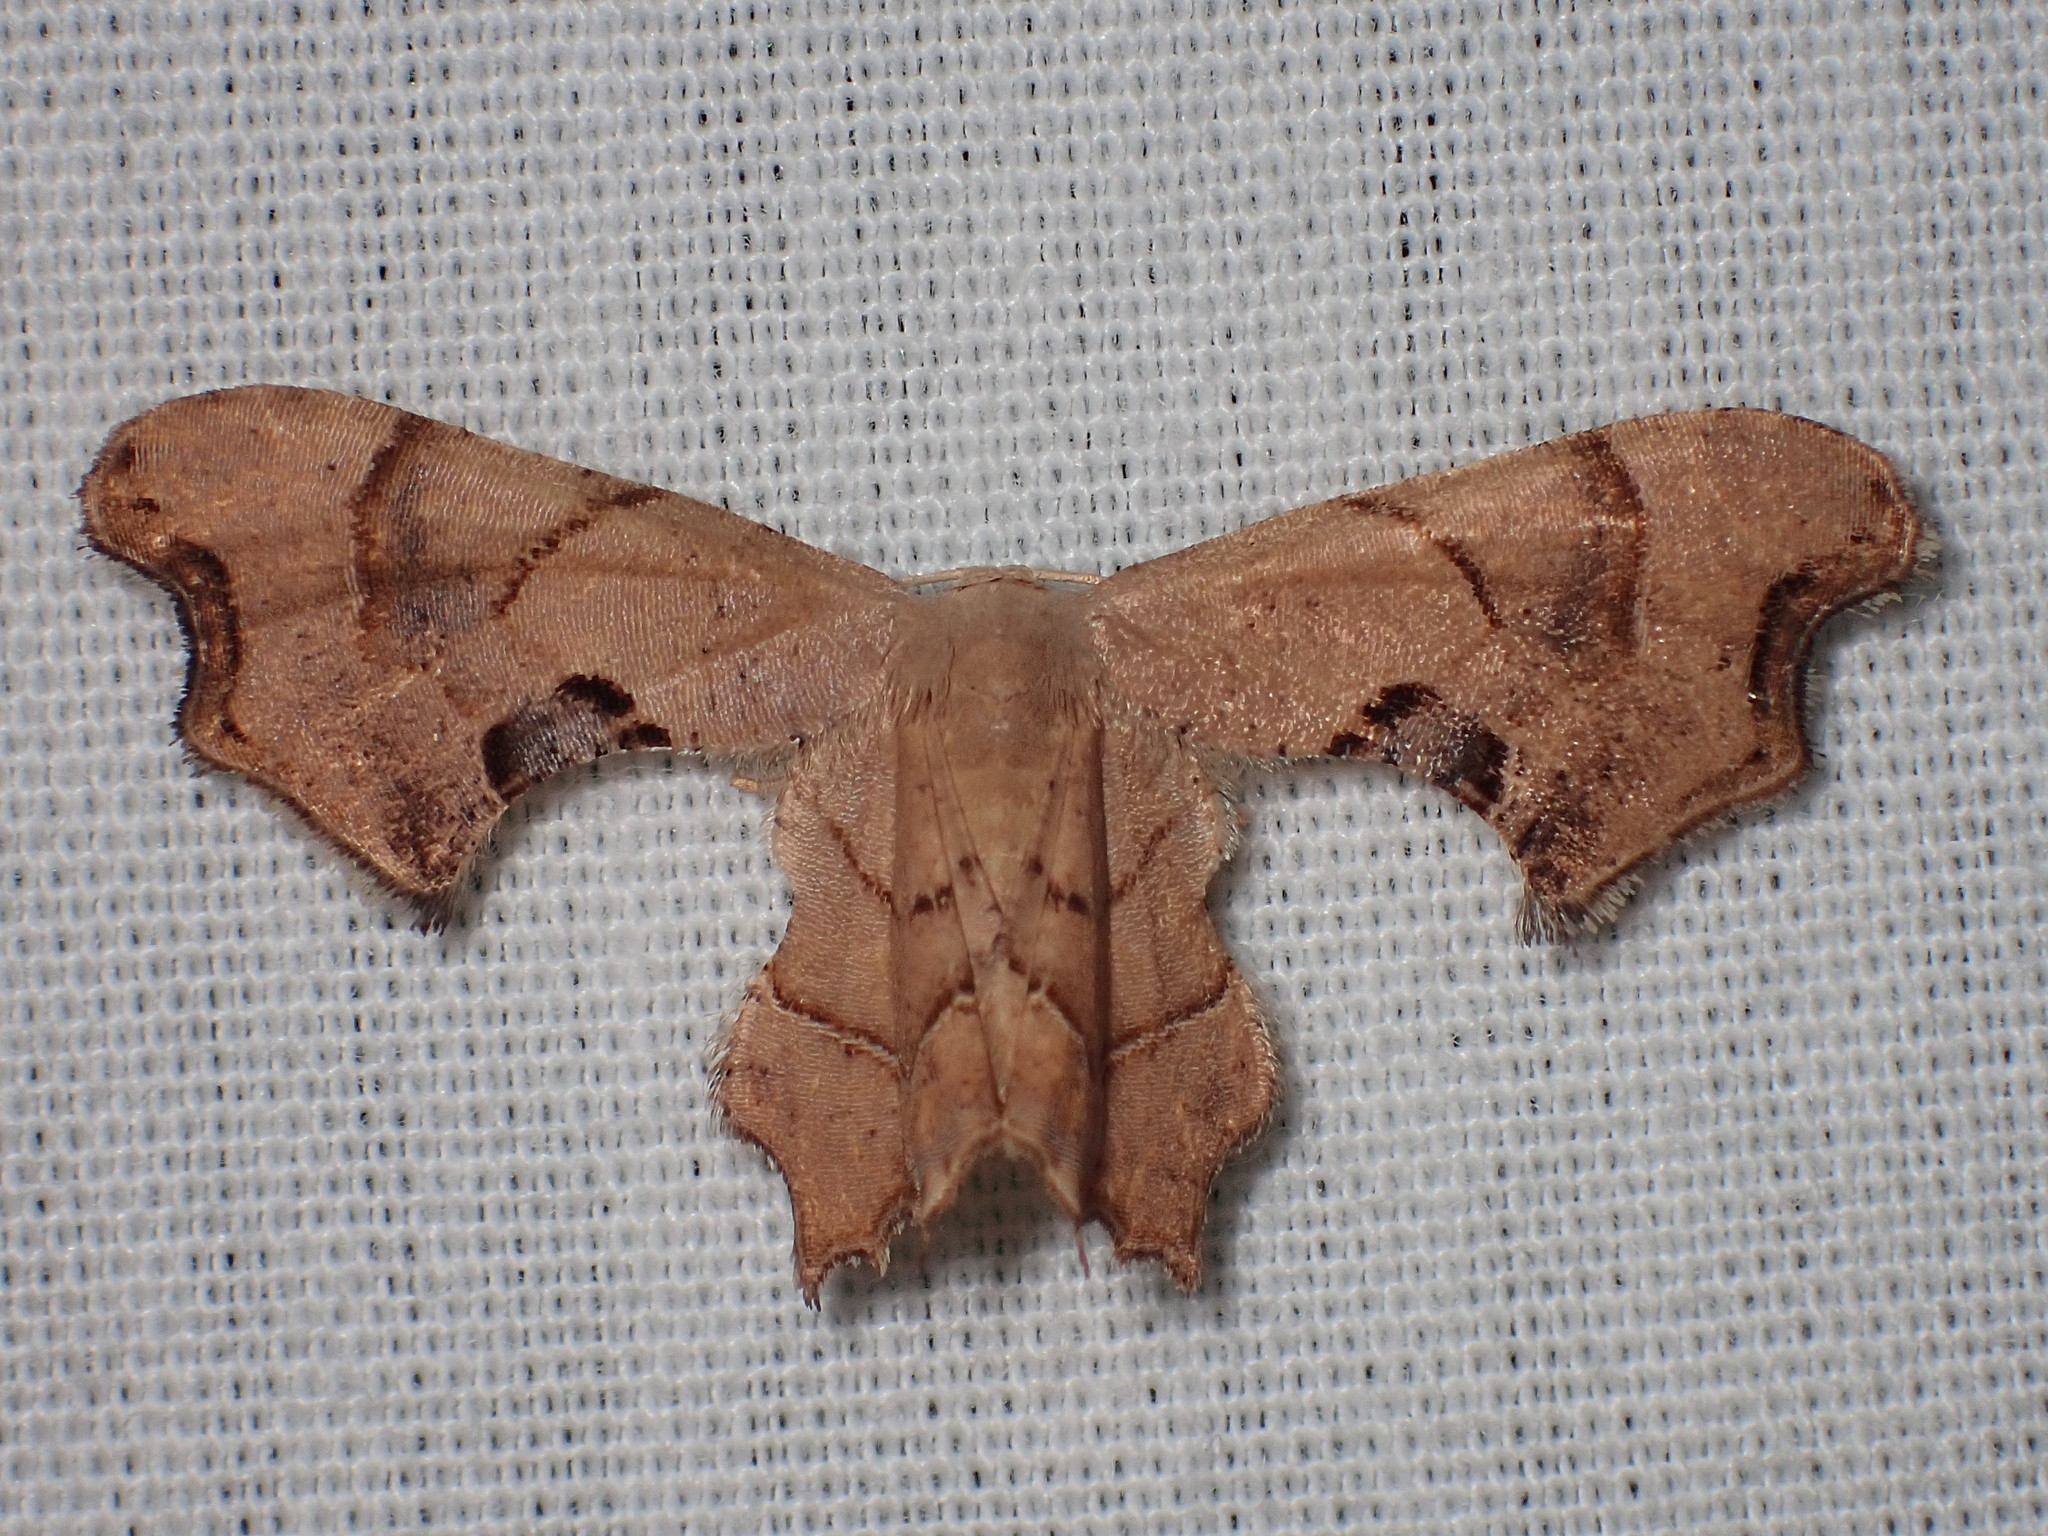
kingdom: Animalia
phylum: Arthropoda
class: Insecta
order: Lepidoptera
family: Uraniidae
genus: Epiplema
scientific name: Epiplema Calledapteryx dryopterata
